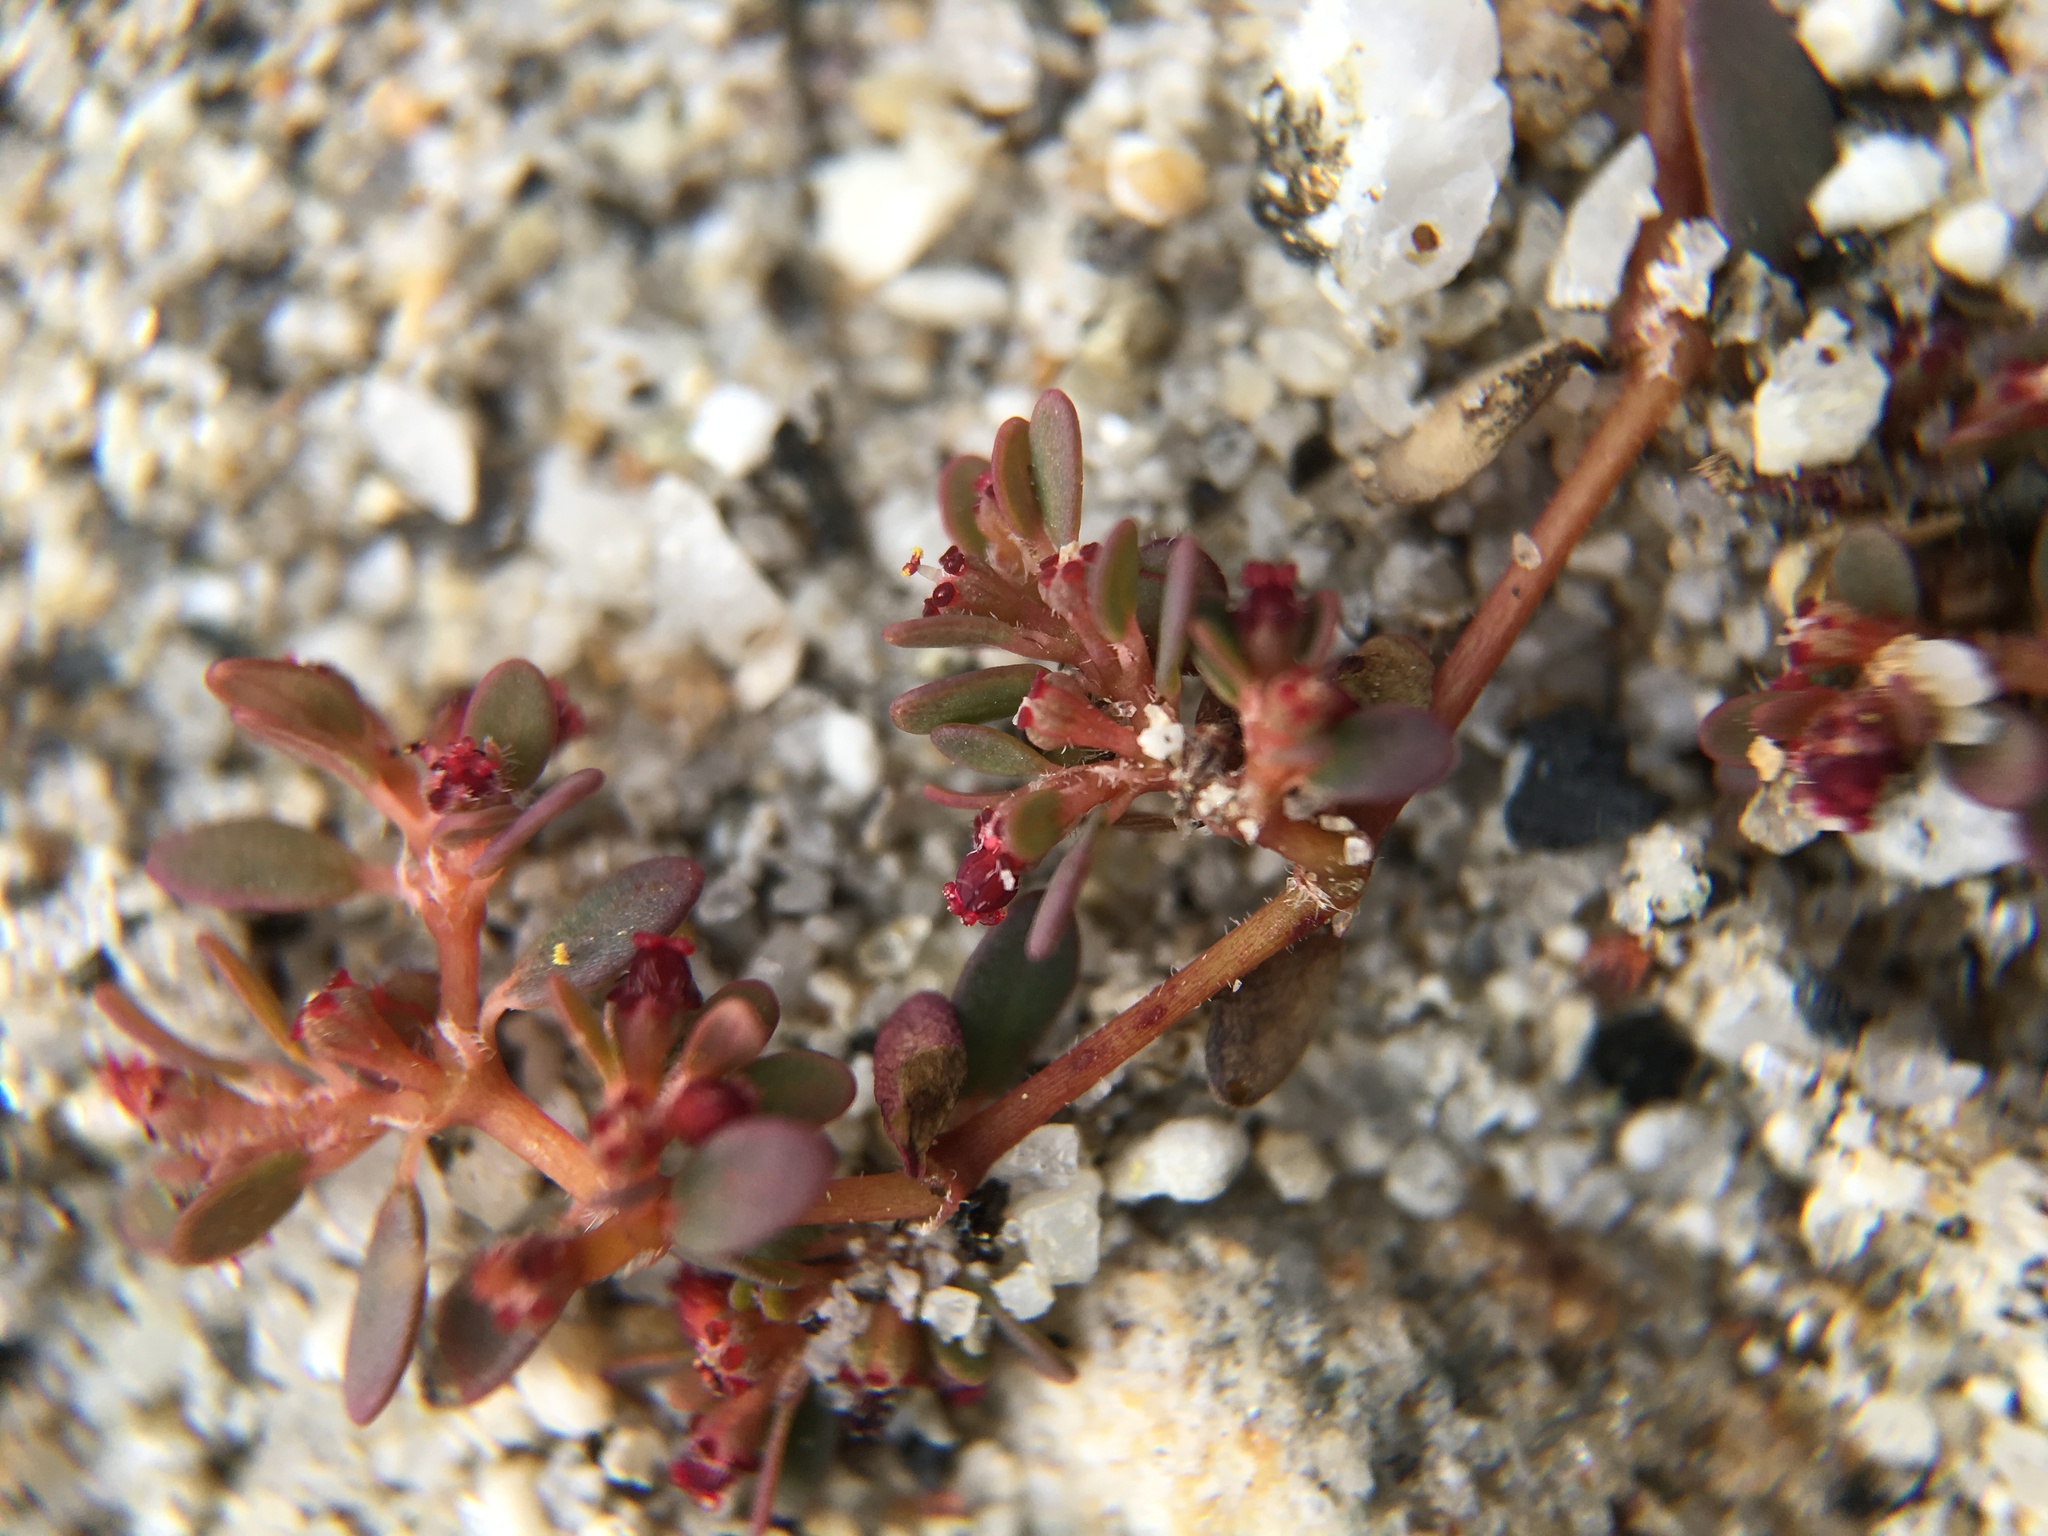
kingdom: Plantae
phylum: Tracheophyta
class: Magnoliopsida
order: Malpighiales
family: Euphorbiaceae
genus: Euphorbia
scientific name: Euphorbia micromera
